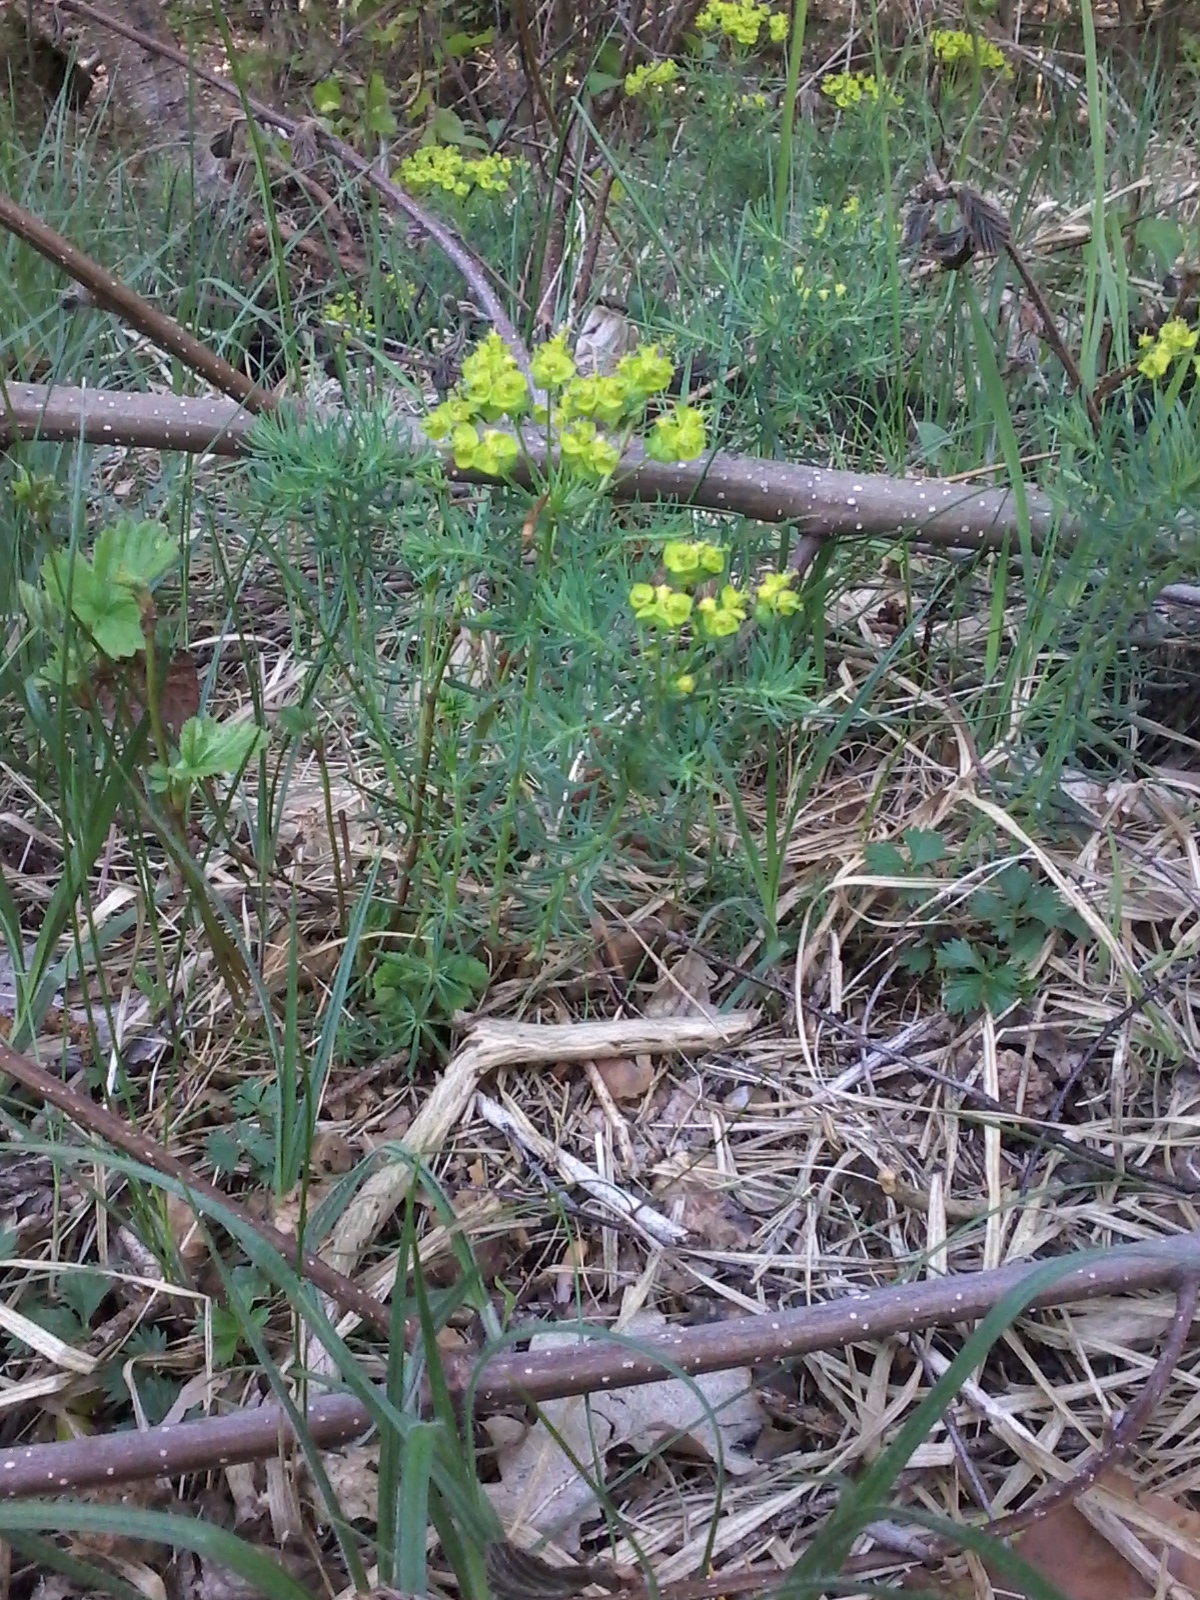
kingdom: Plantae
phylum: Tracheophyta
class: Magnoliopsida
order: Malpighiales
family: Euphorbiaceae
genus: Euphorbia
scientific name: Euphorbia cyparissias
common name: Cypress spurge
